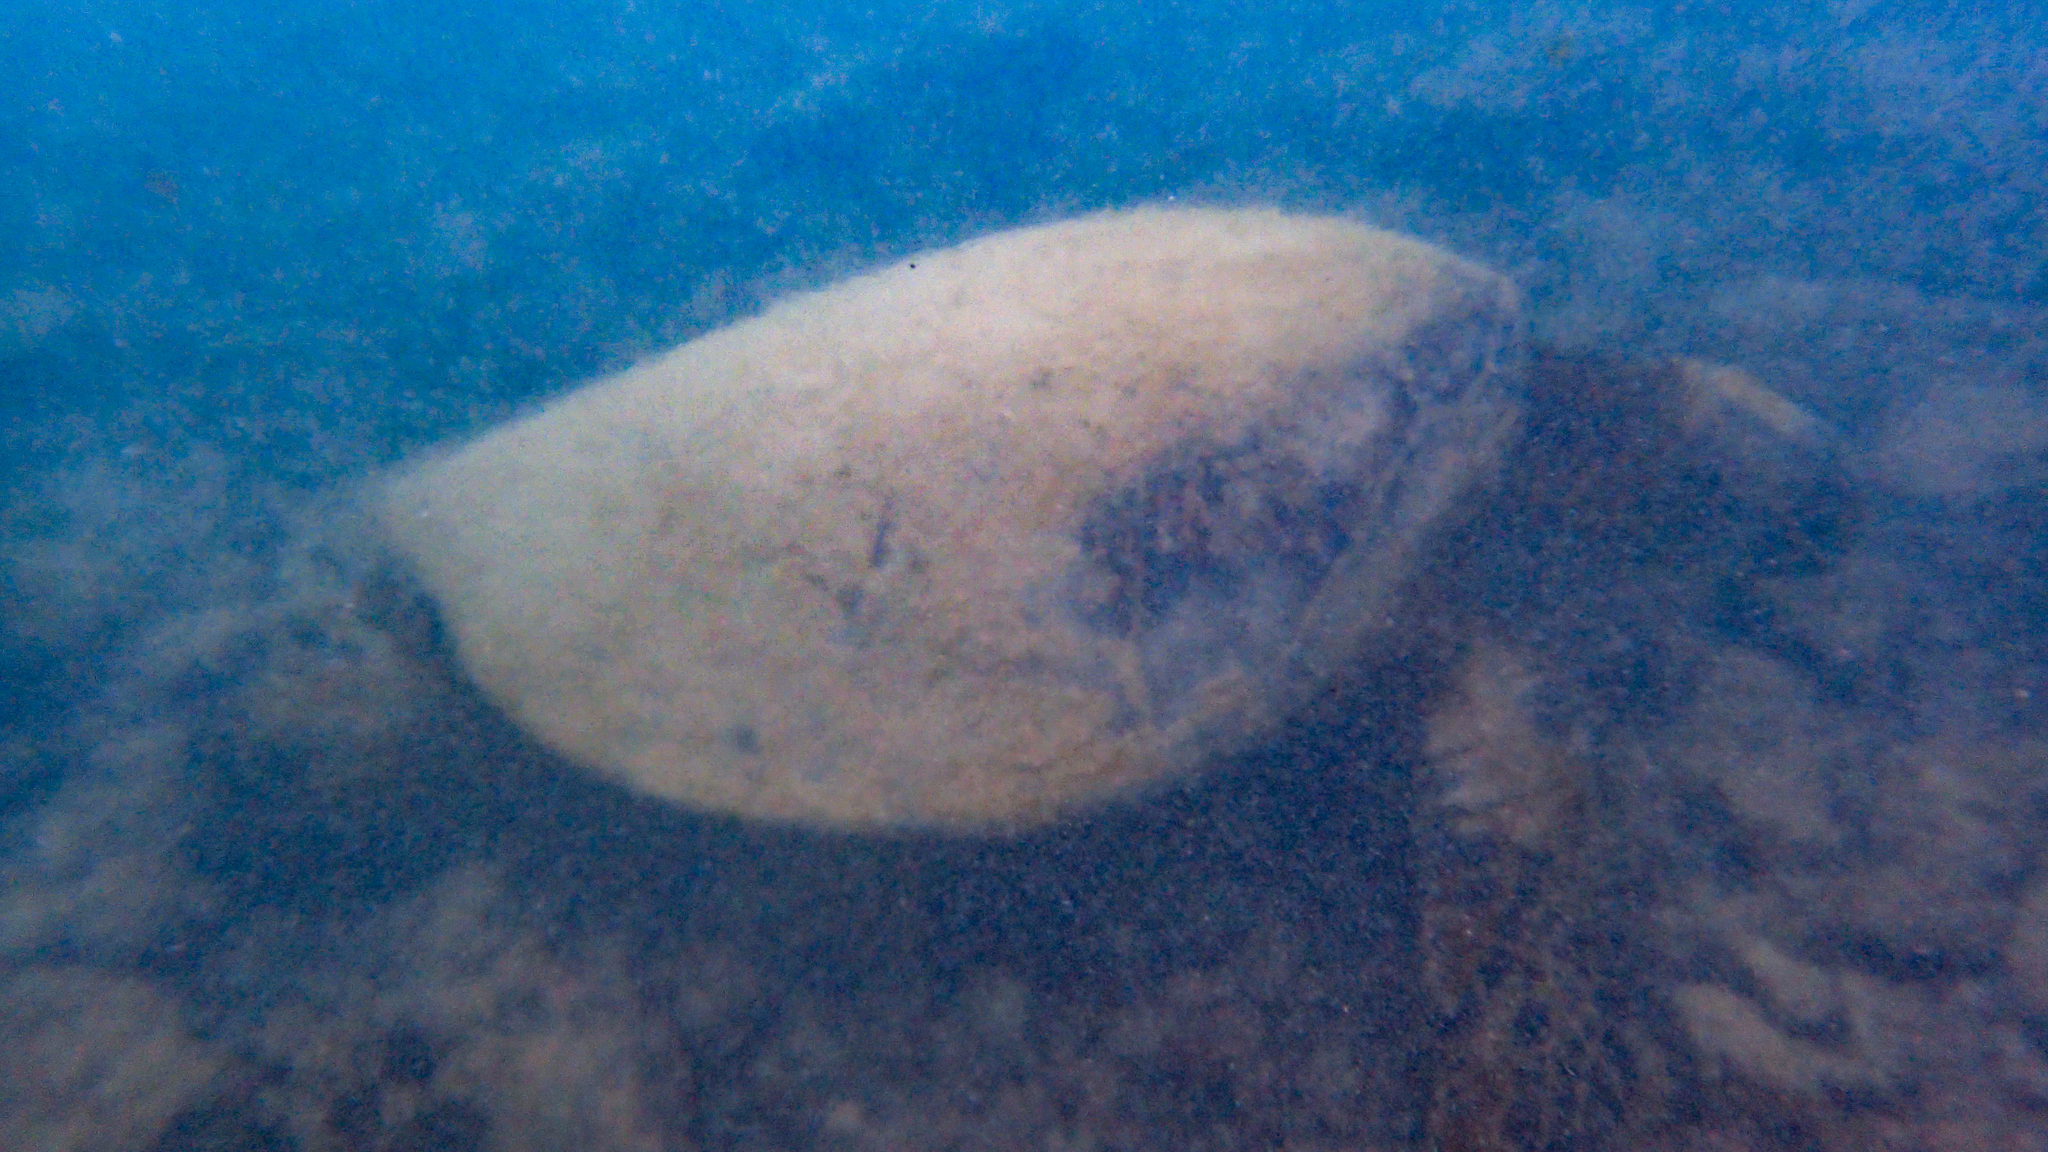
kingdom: Animalia
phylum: Chordata
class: Testudines
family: Cheloniidae
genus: Chelonia
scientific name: Chelonia mydas
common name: Green turtle
